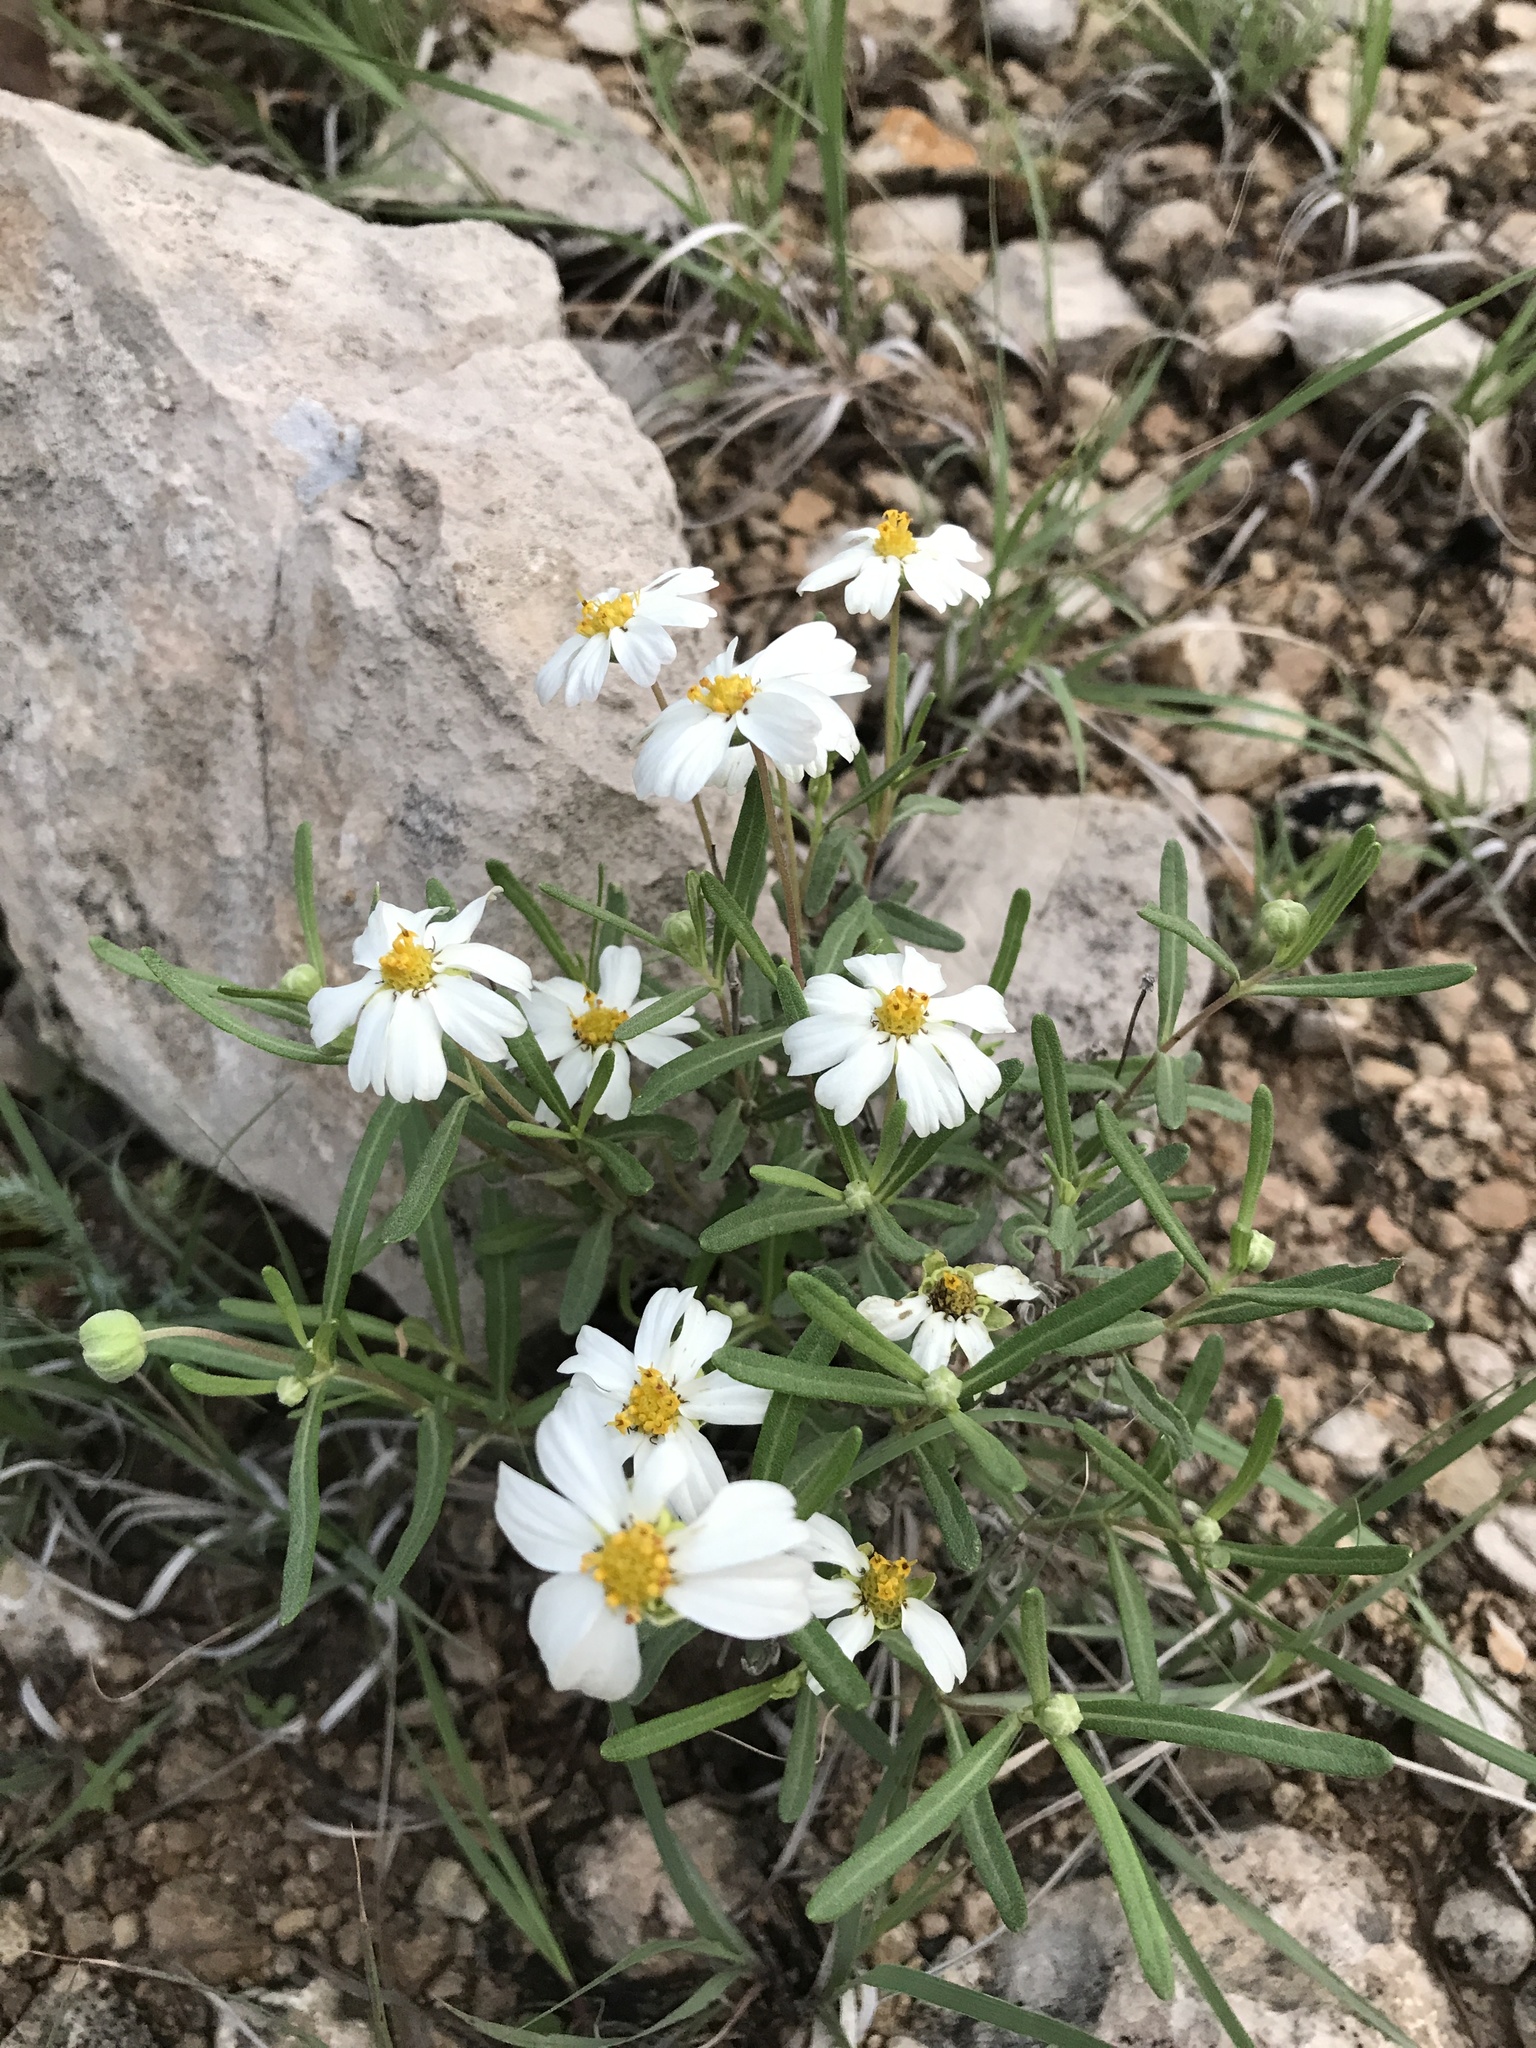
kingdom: Plantae
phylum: Tracheophyta
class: Magnoliopsida
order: Asterales
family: Asteraceae
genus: Melampodium
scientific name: Melampodium leucanthum
